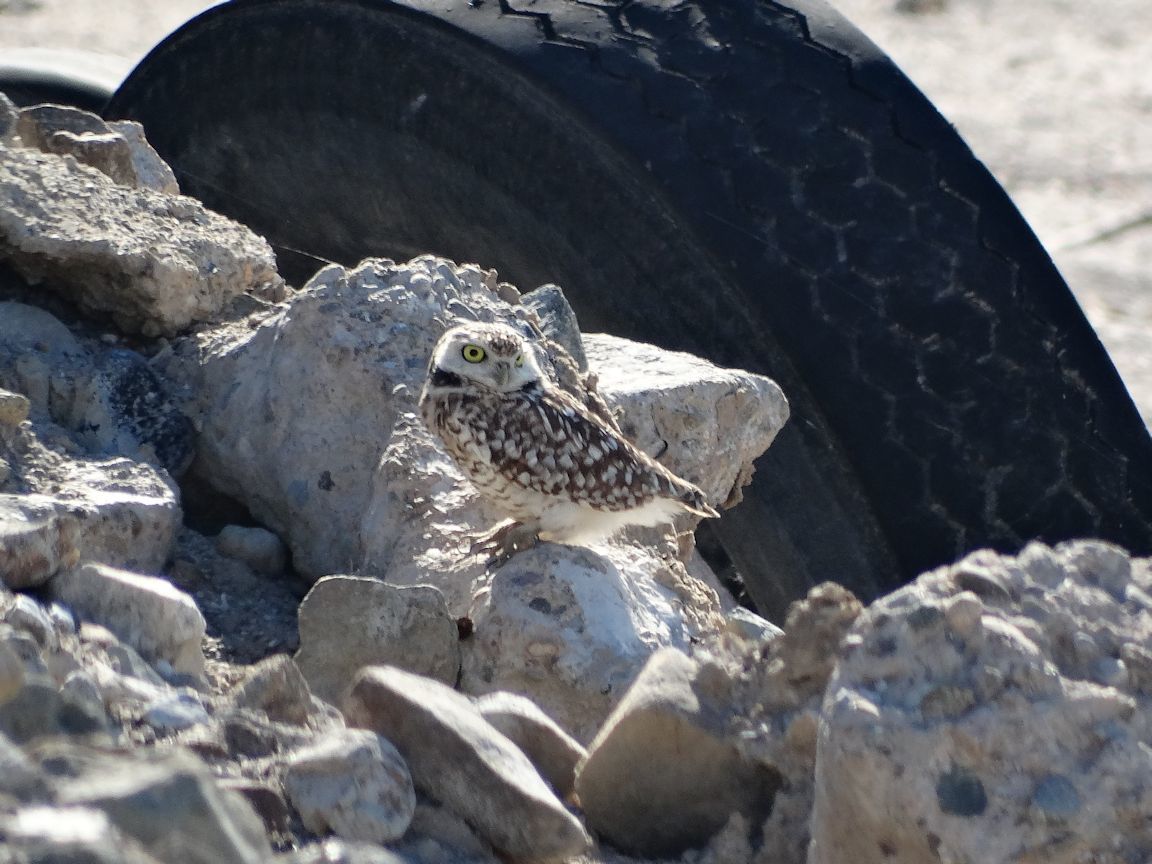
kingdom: Animalia
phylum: Chordata
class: Aves
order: Strigiformes
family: Strigidae
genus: Athene
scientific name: Athene cunicularia
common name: Burrowing owl
